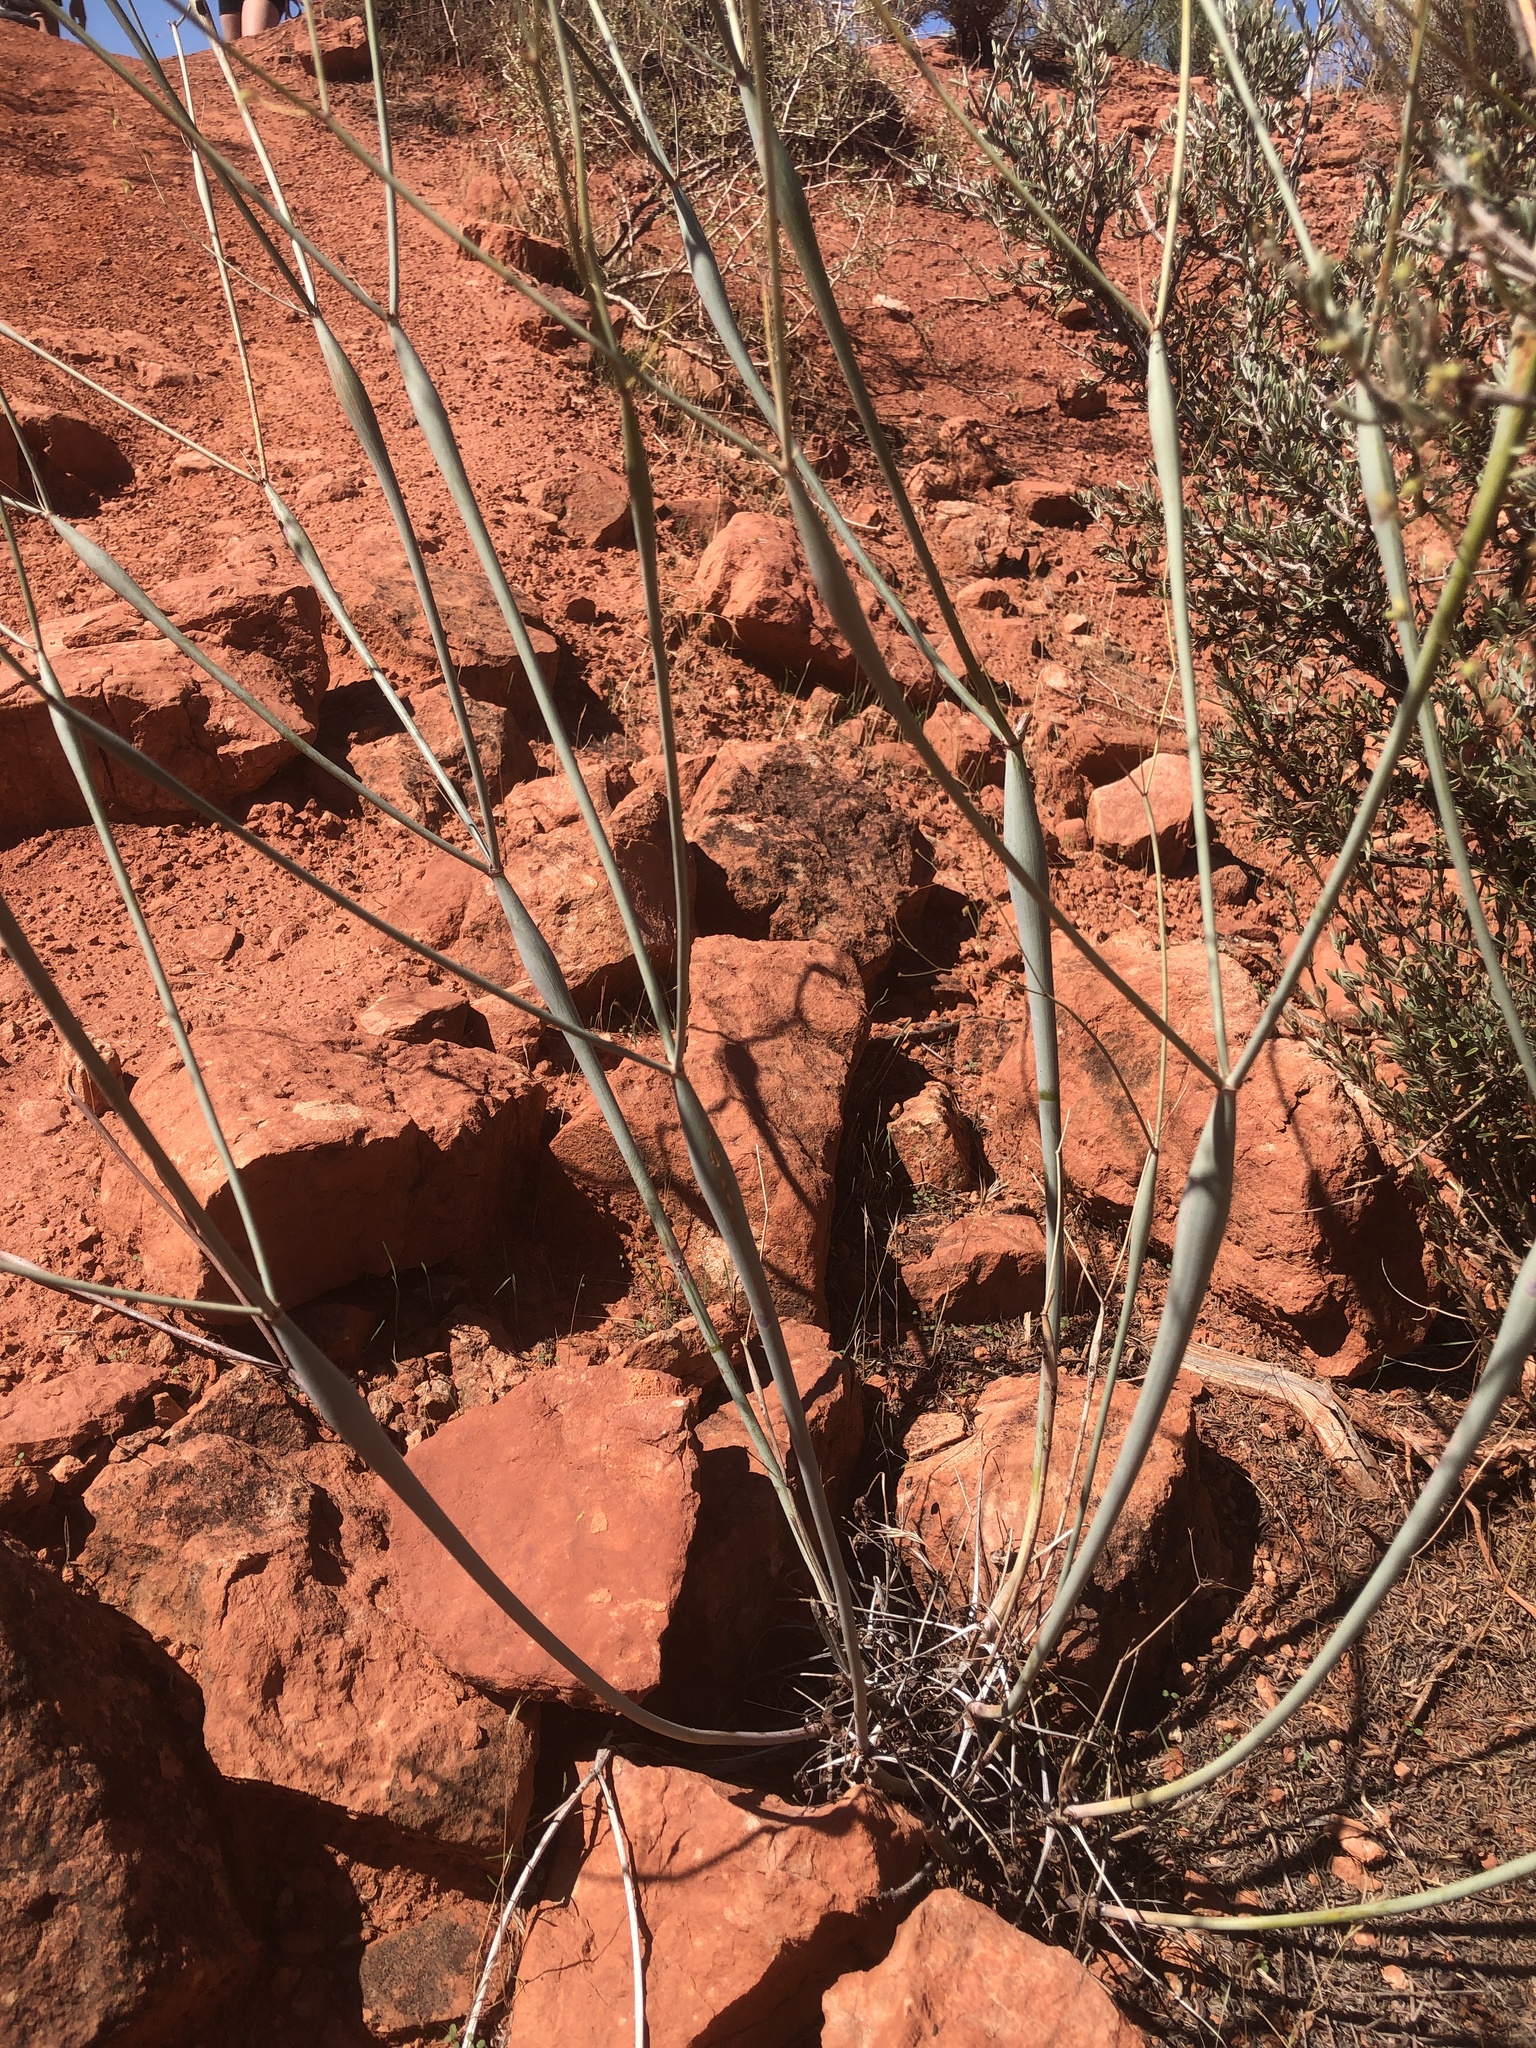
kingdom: Plantae
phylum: Tracheophyta
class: Magnoliopsida
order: Caryophyllales
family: Polygonaceae
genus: Eriogonum
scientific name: Eriogonum inflatum
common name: Desert trumpet
